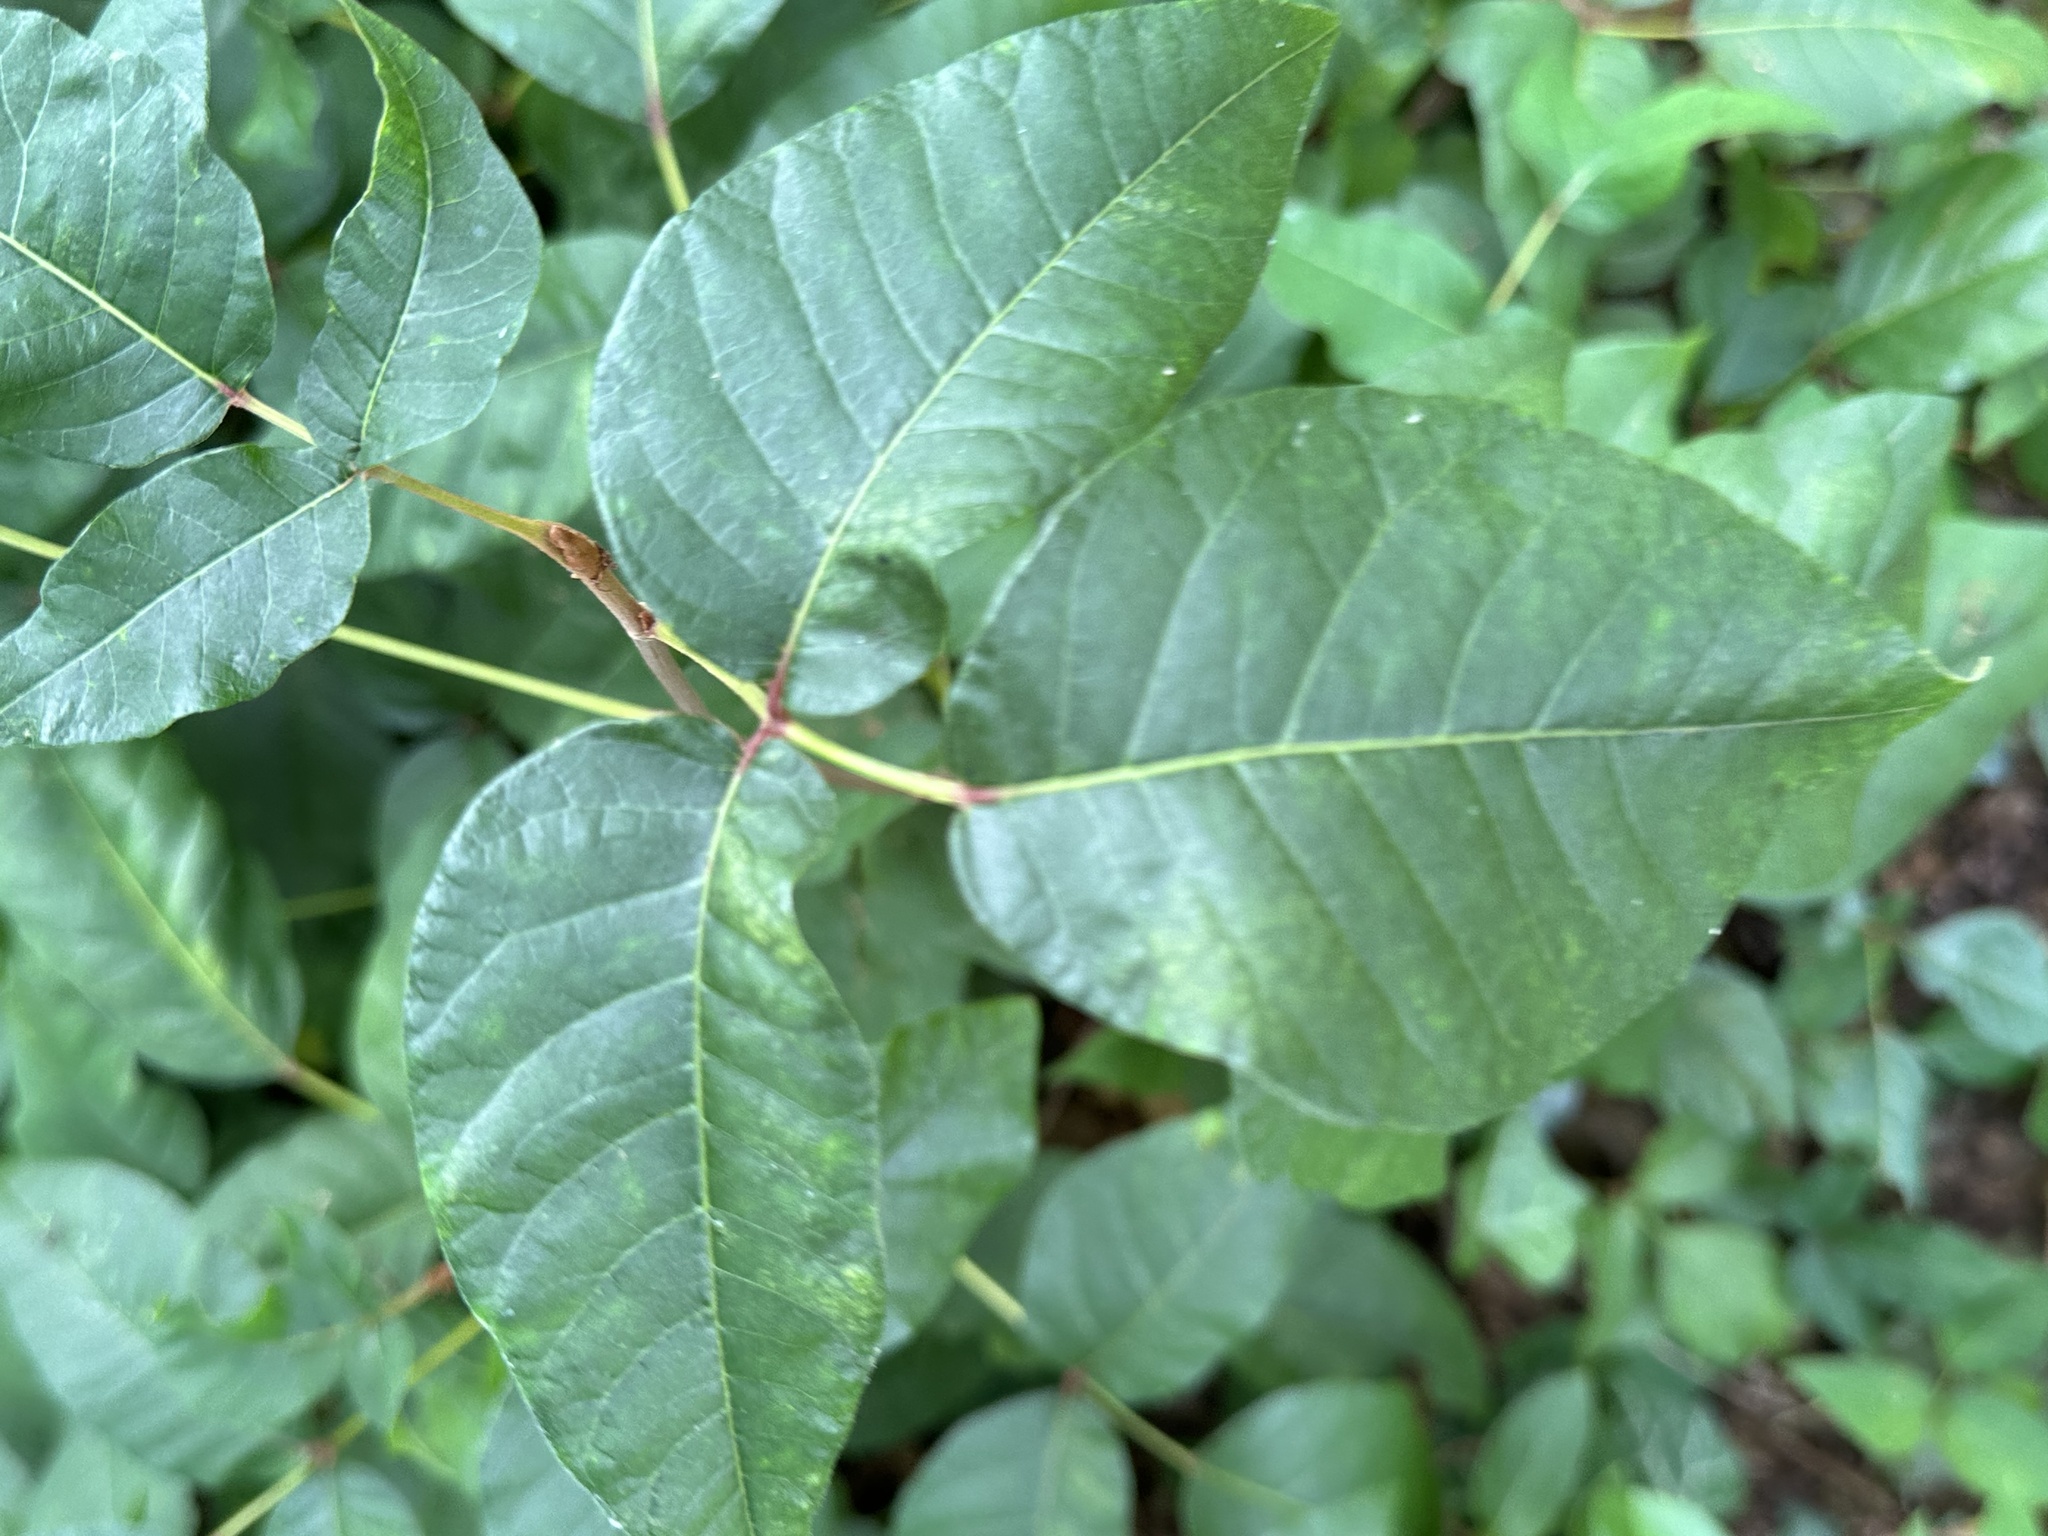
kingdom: Plantae
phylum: Tracheophyta
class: Magnoliopsida
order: Sapindales
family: Anacardiaceae
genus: Toxicodendron
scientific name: Toxicodendron radicans
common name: Poison ivy
